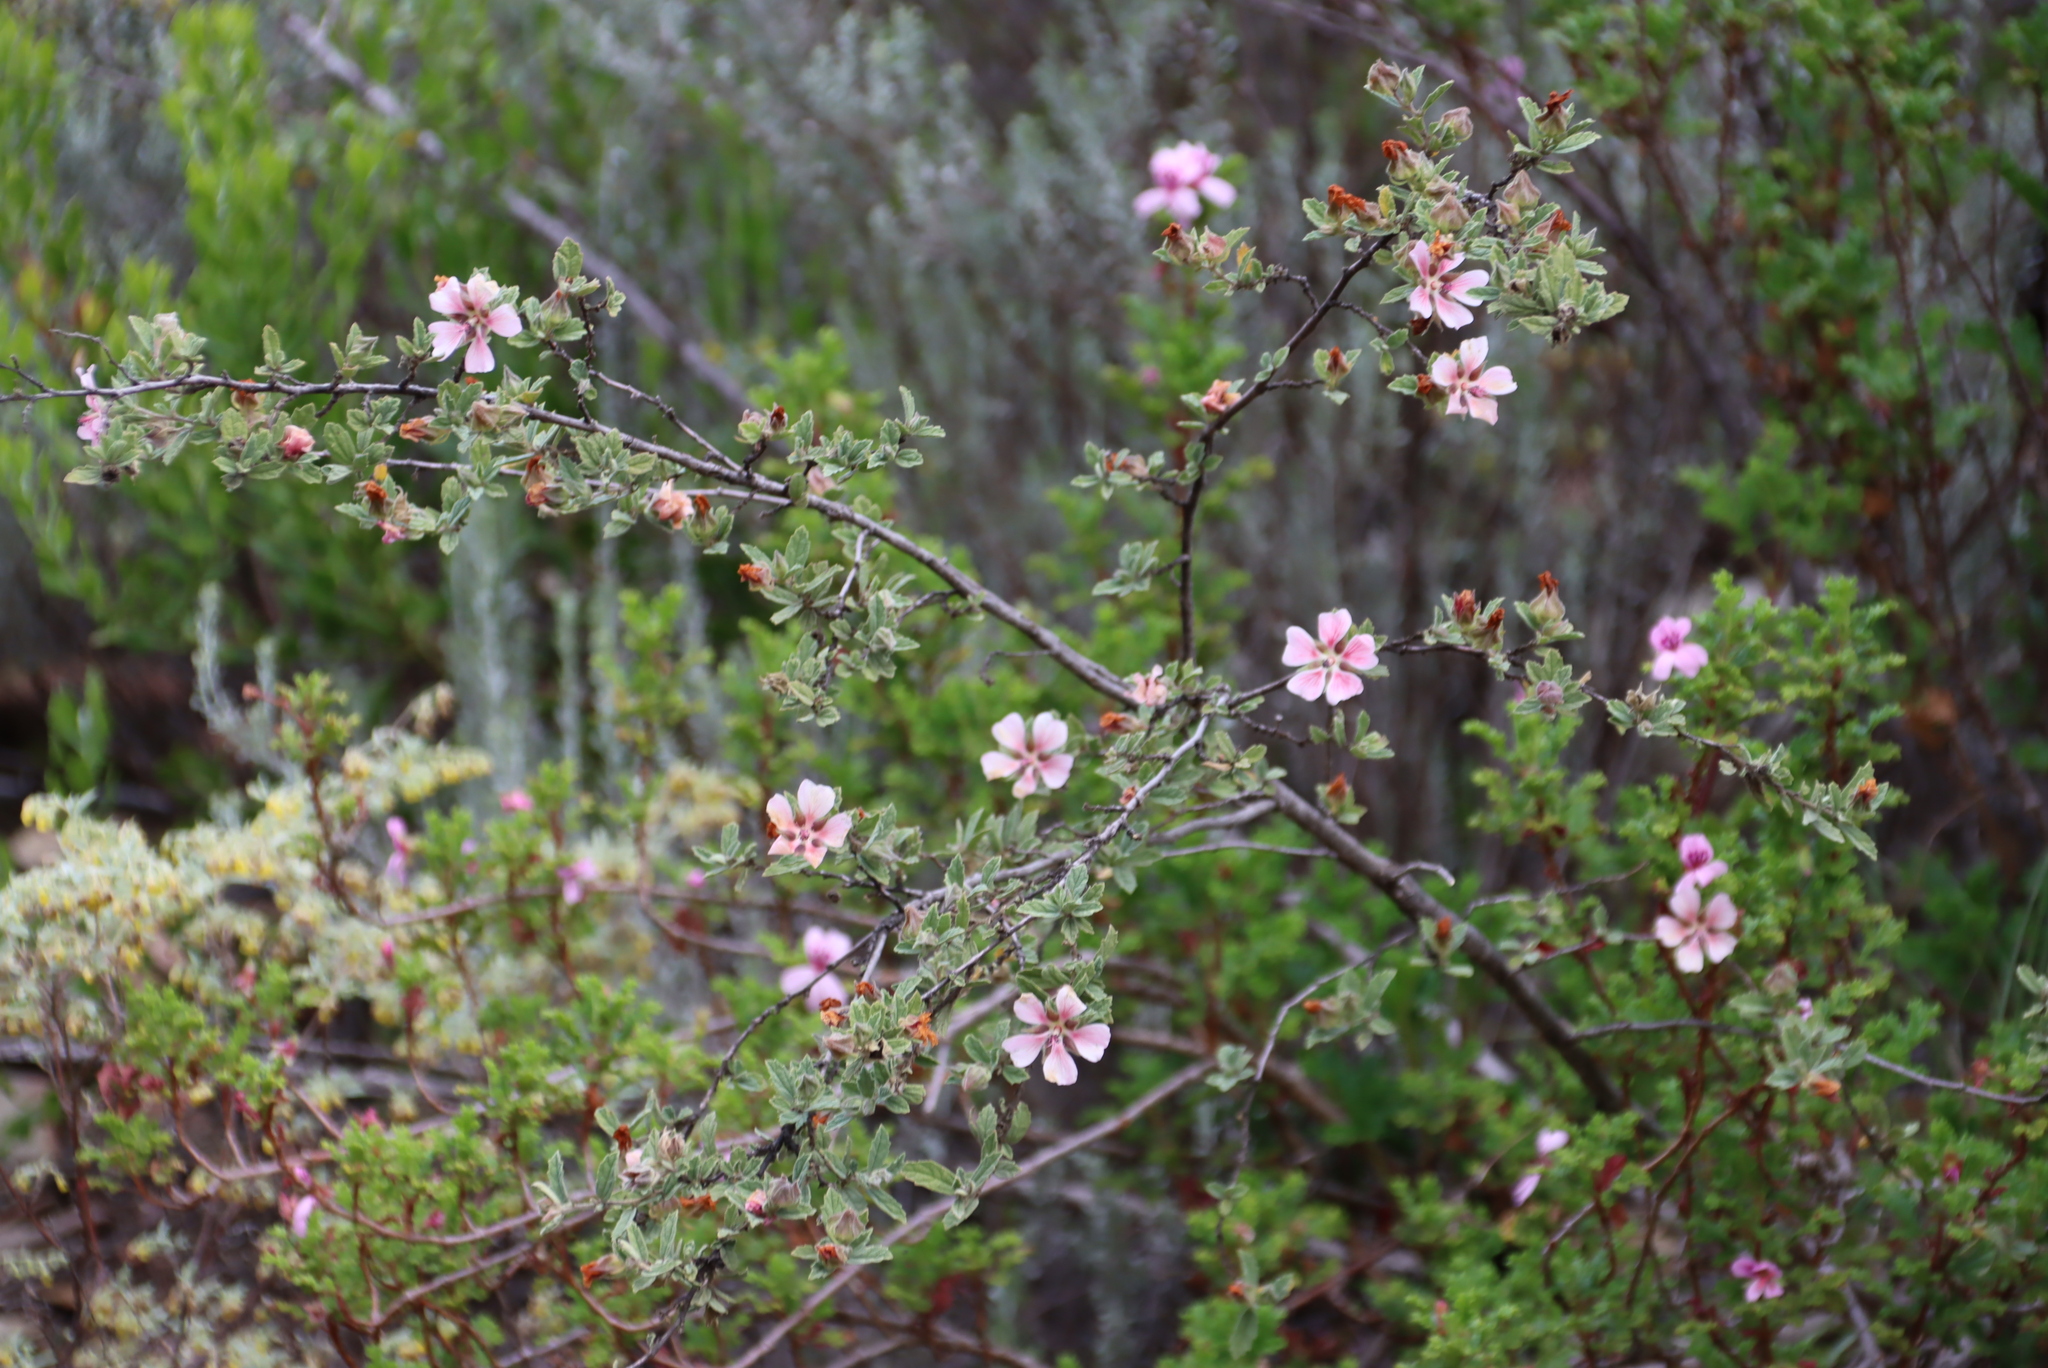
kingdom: Plantae
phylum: Tracheophyta
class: Magnoliopsida
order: Malvales
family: Malvaceae
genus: Anisodontea
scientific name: Anisodontea scabrosa
